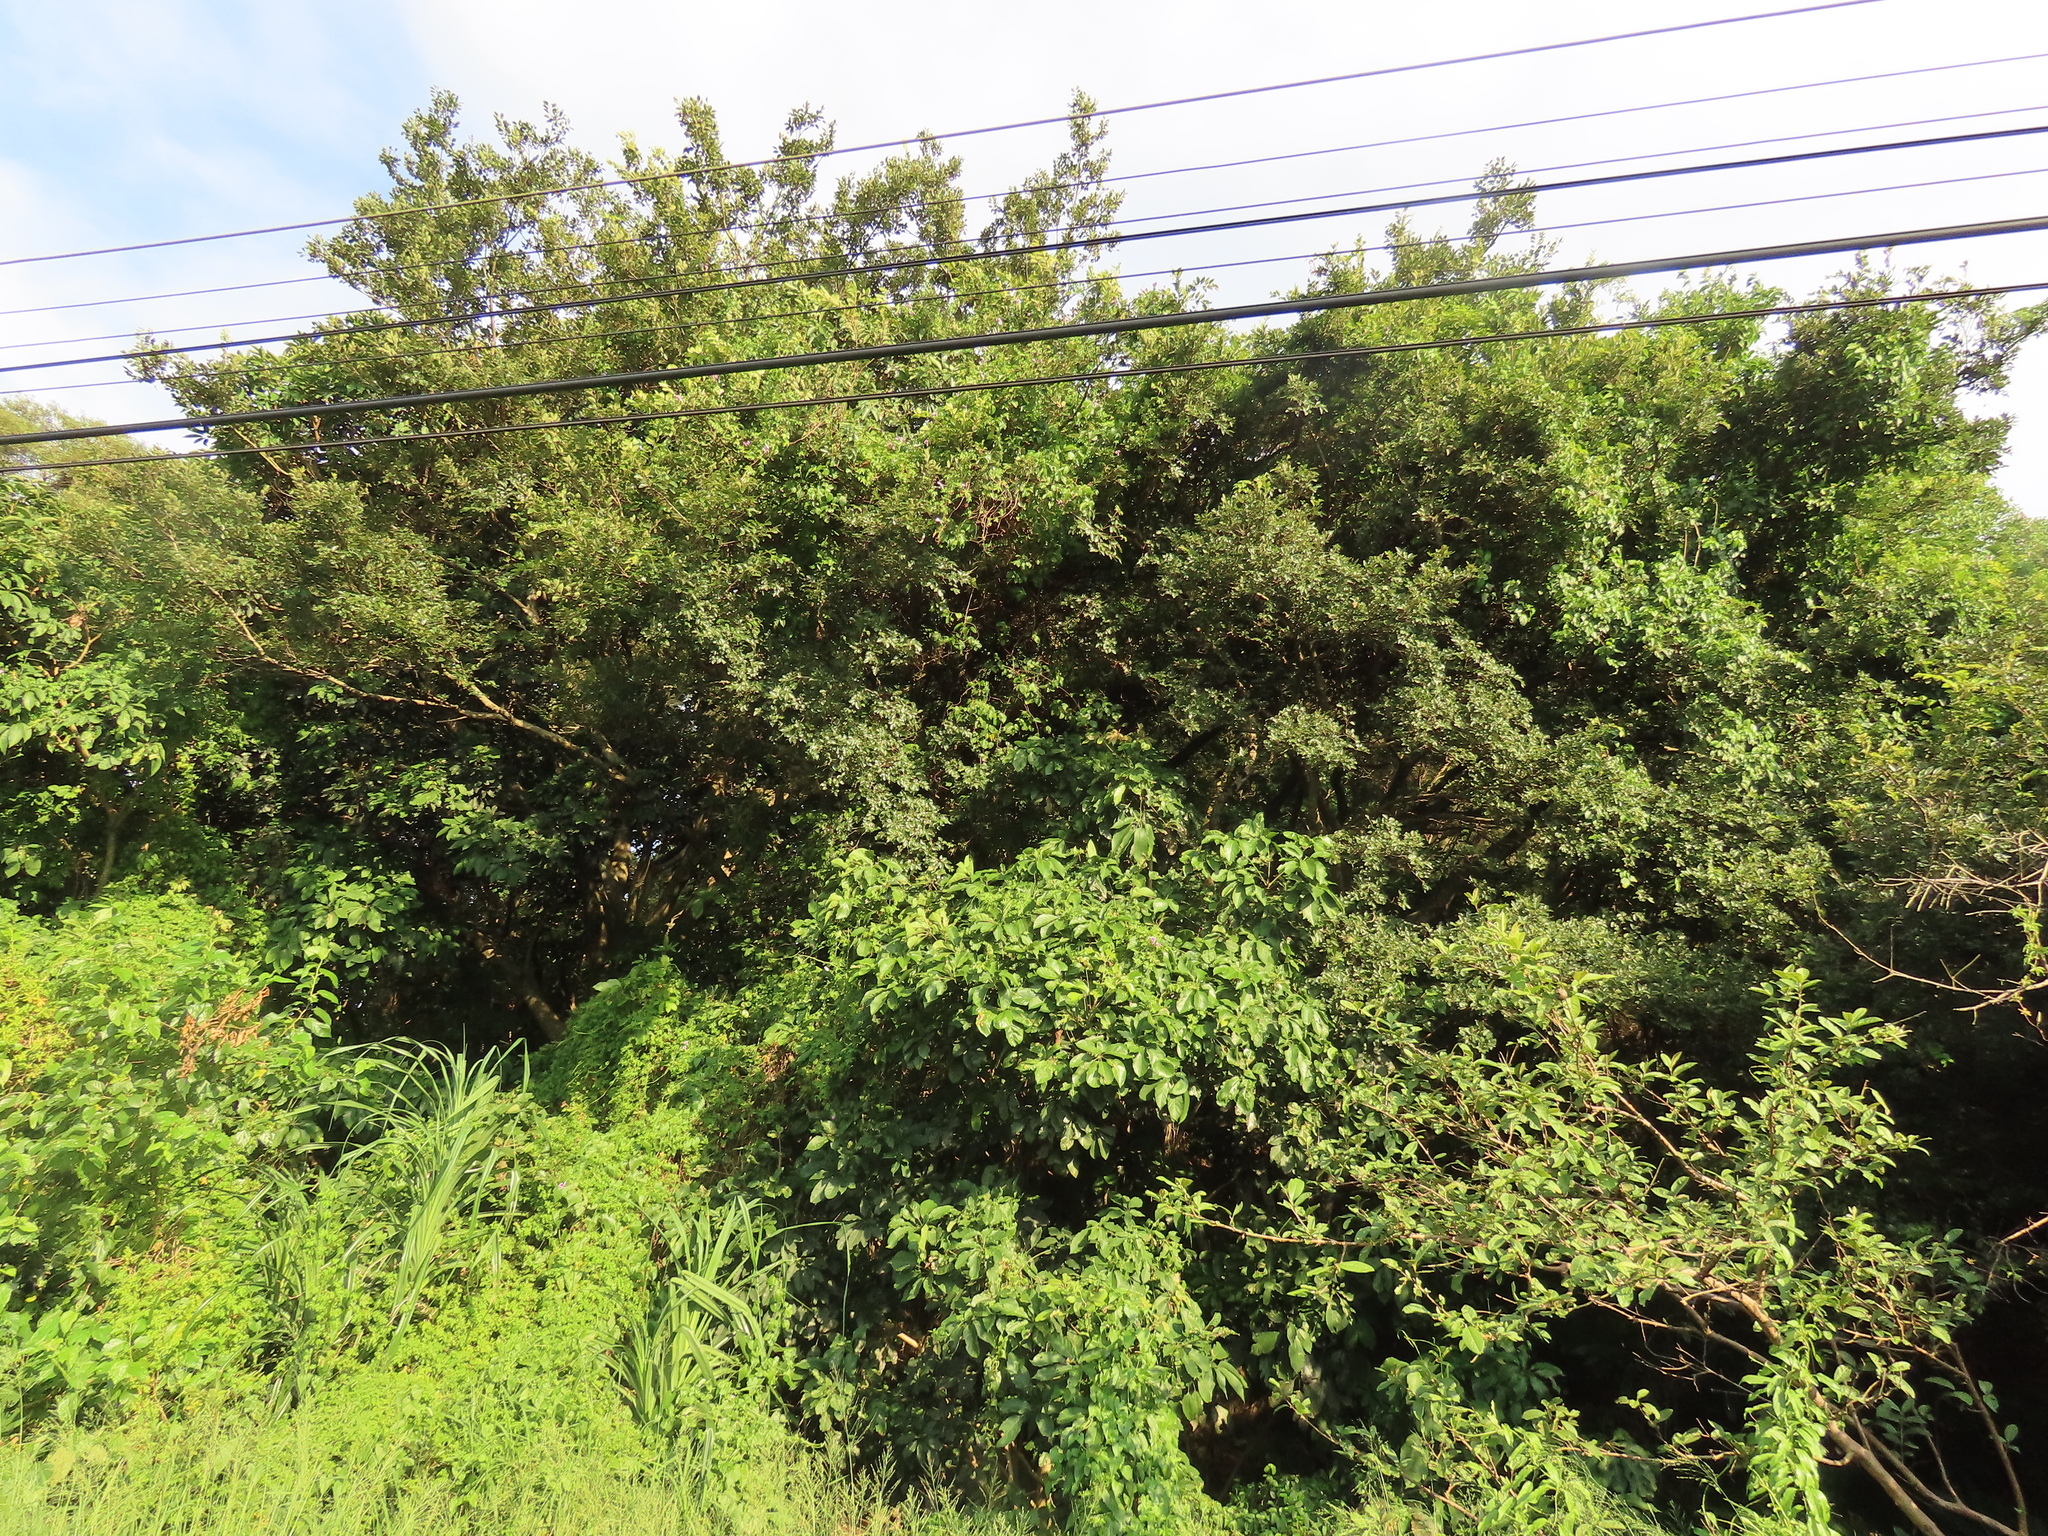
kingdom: Plantae
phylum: Tracheophyta
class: Magnoliopsida
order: Apiales
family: Araliaceae
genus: Heptapleurum
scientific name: Heptapleurum heptaphyllum
